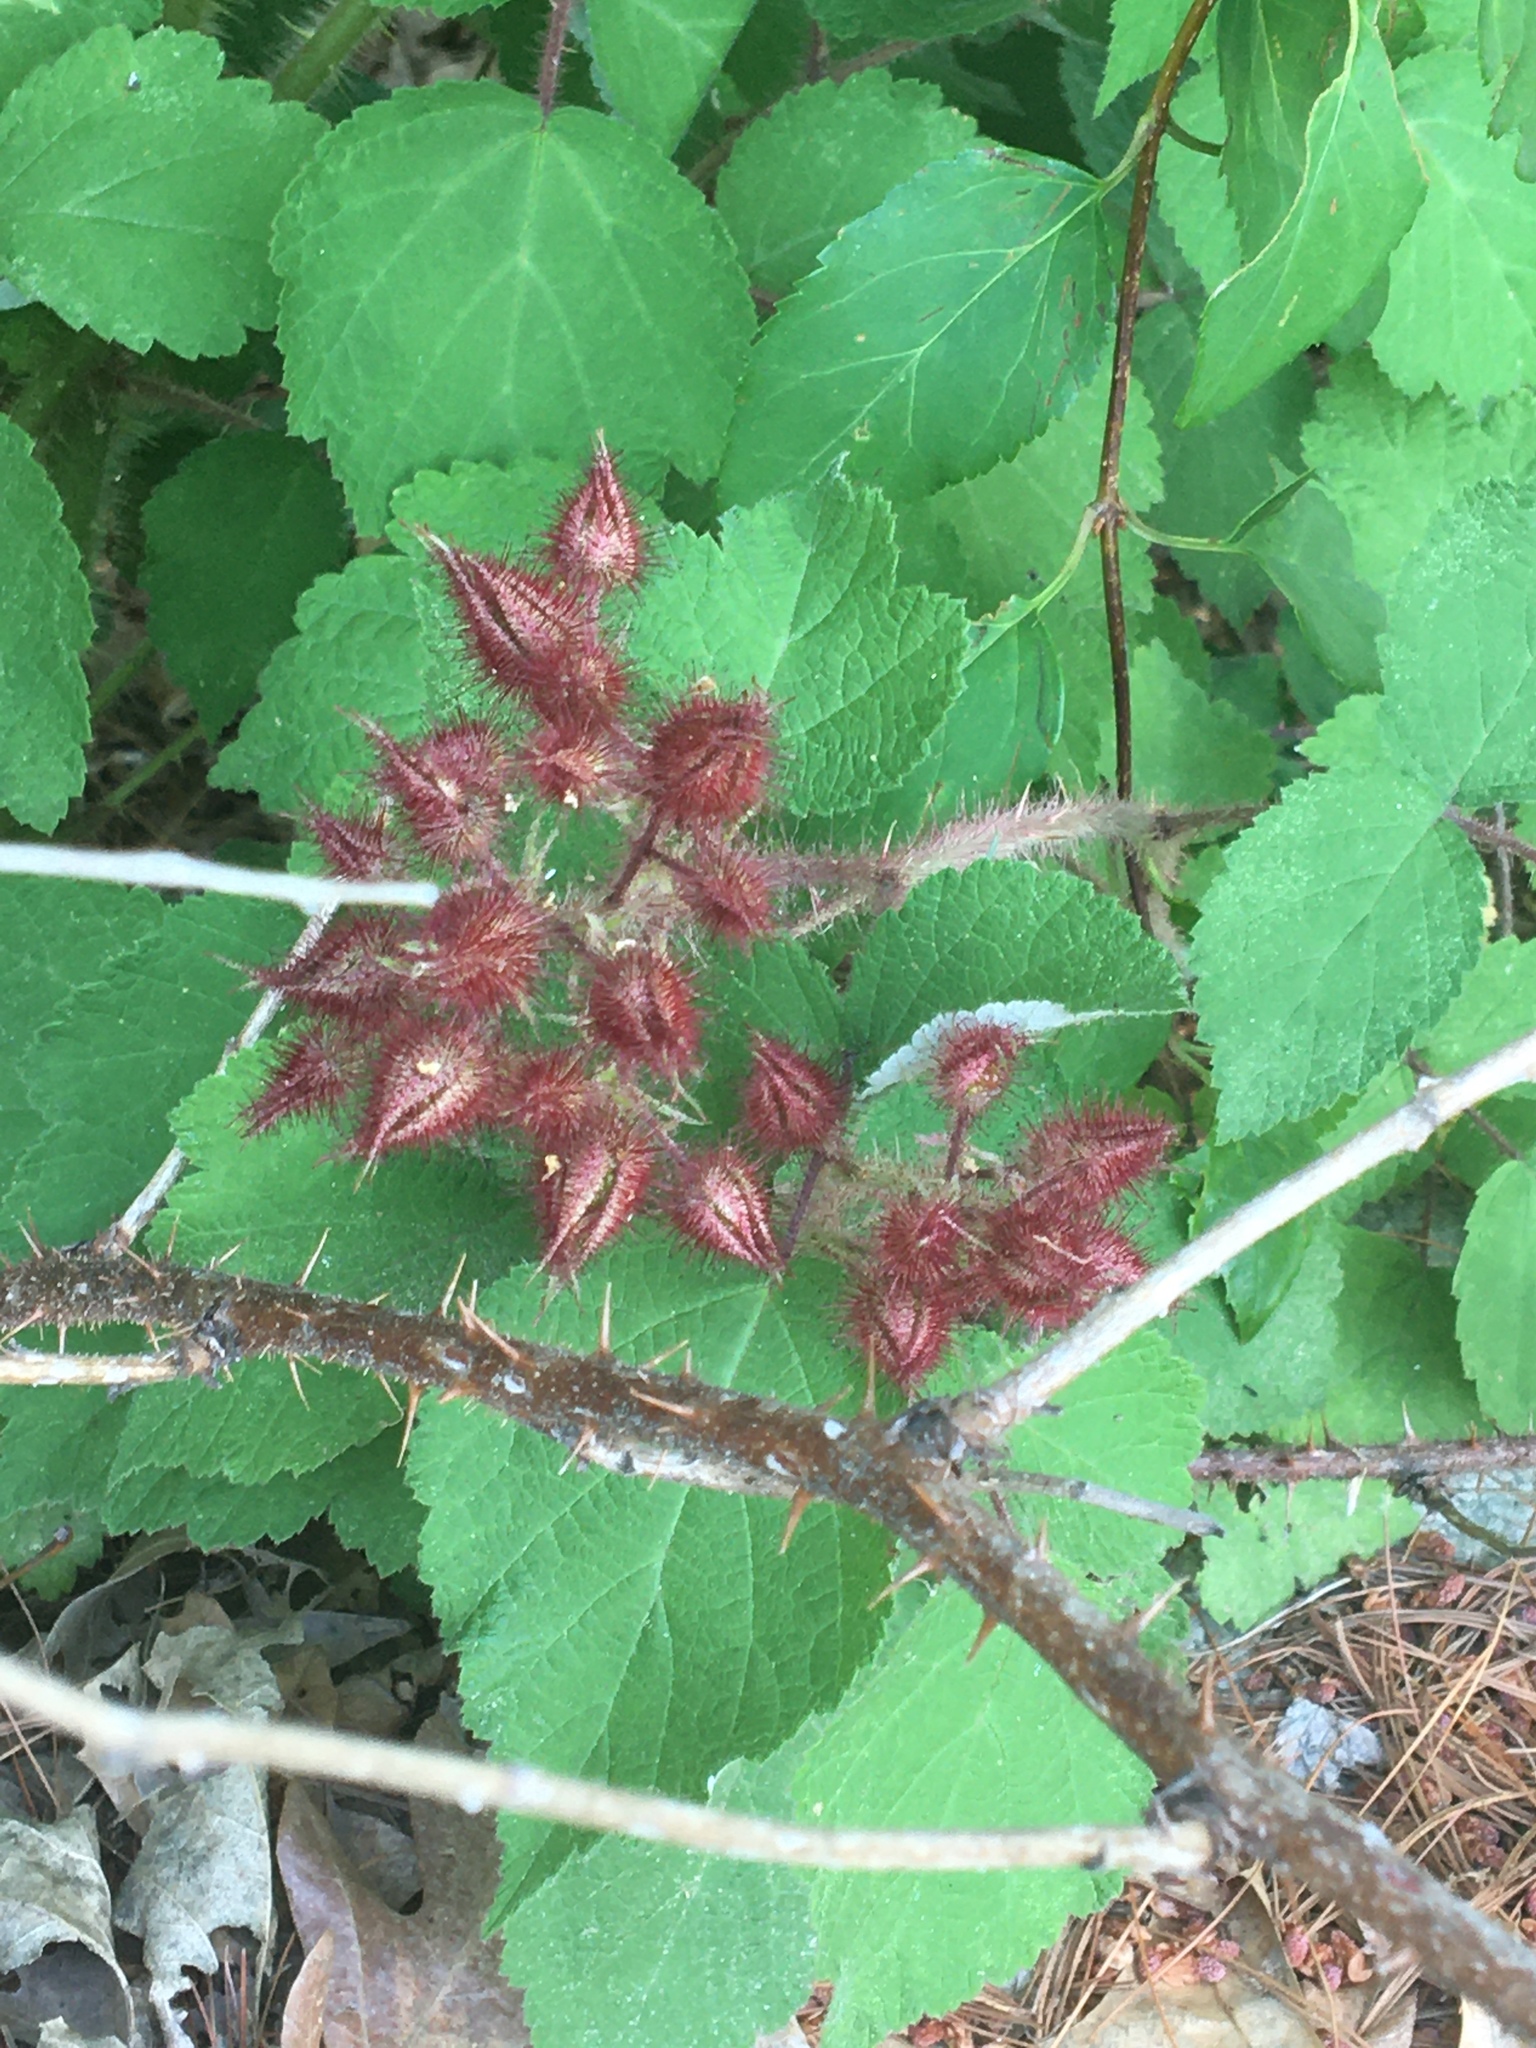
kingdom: Plantae
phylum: Tracheophyta
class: Magnoliopsida
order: Rosales
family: Rosaceae
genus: Rubus
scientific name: Rubus phoenicolasius
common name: Japanese wineberry
